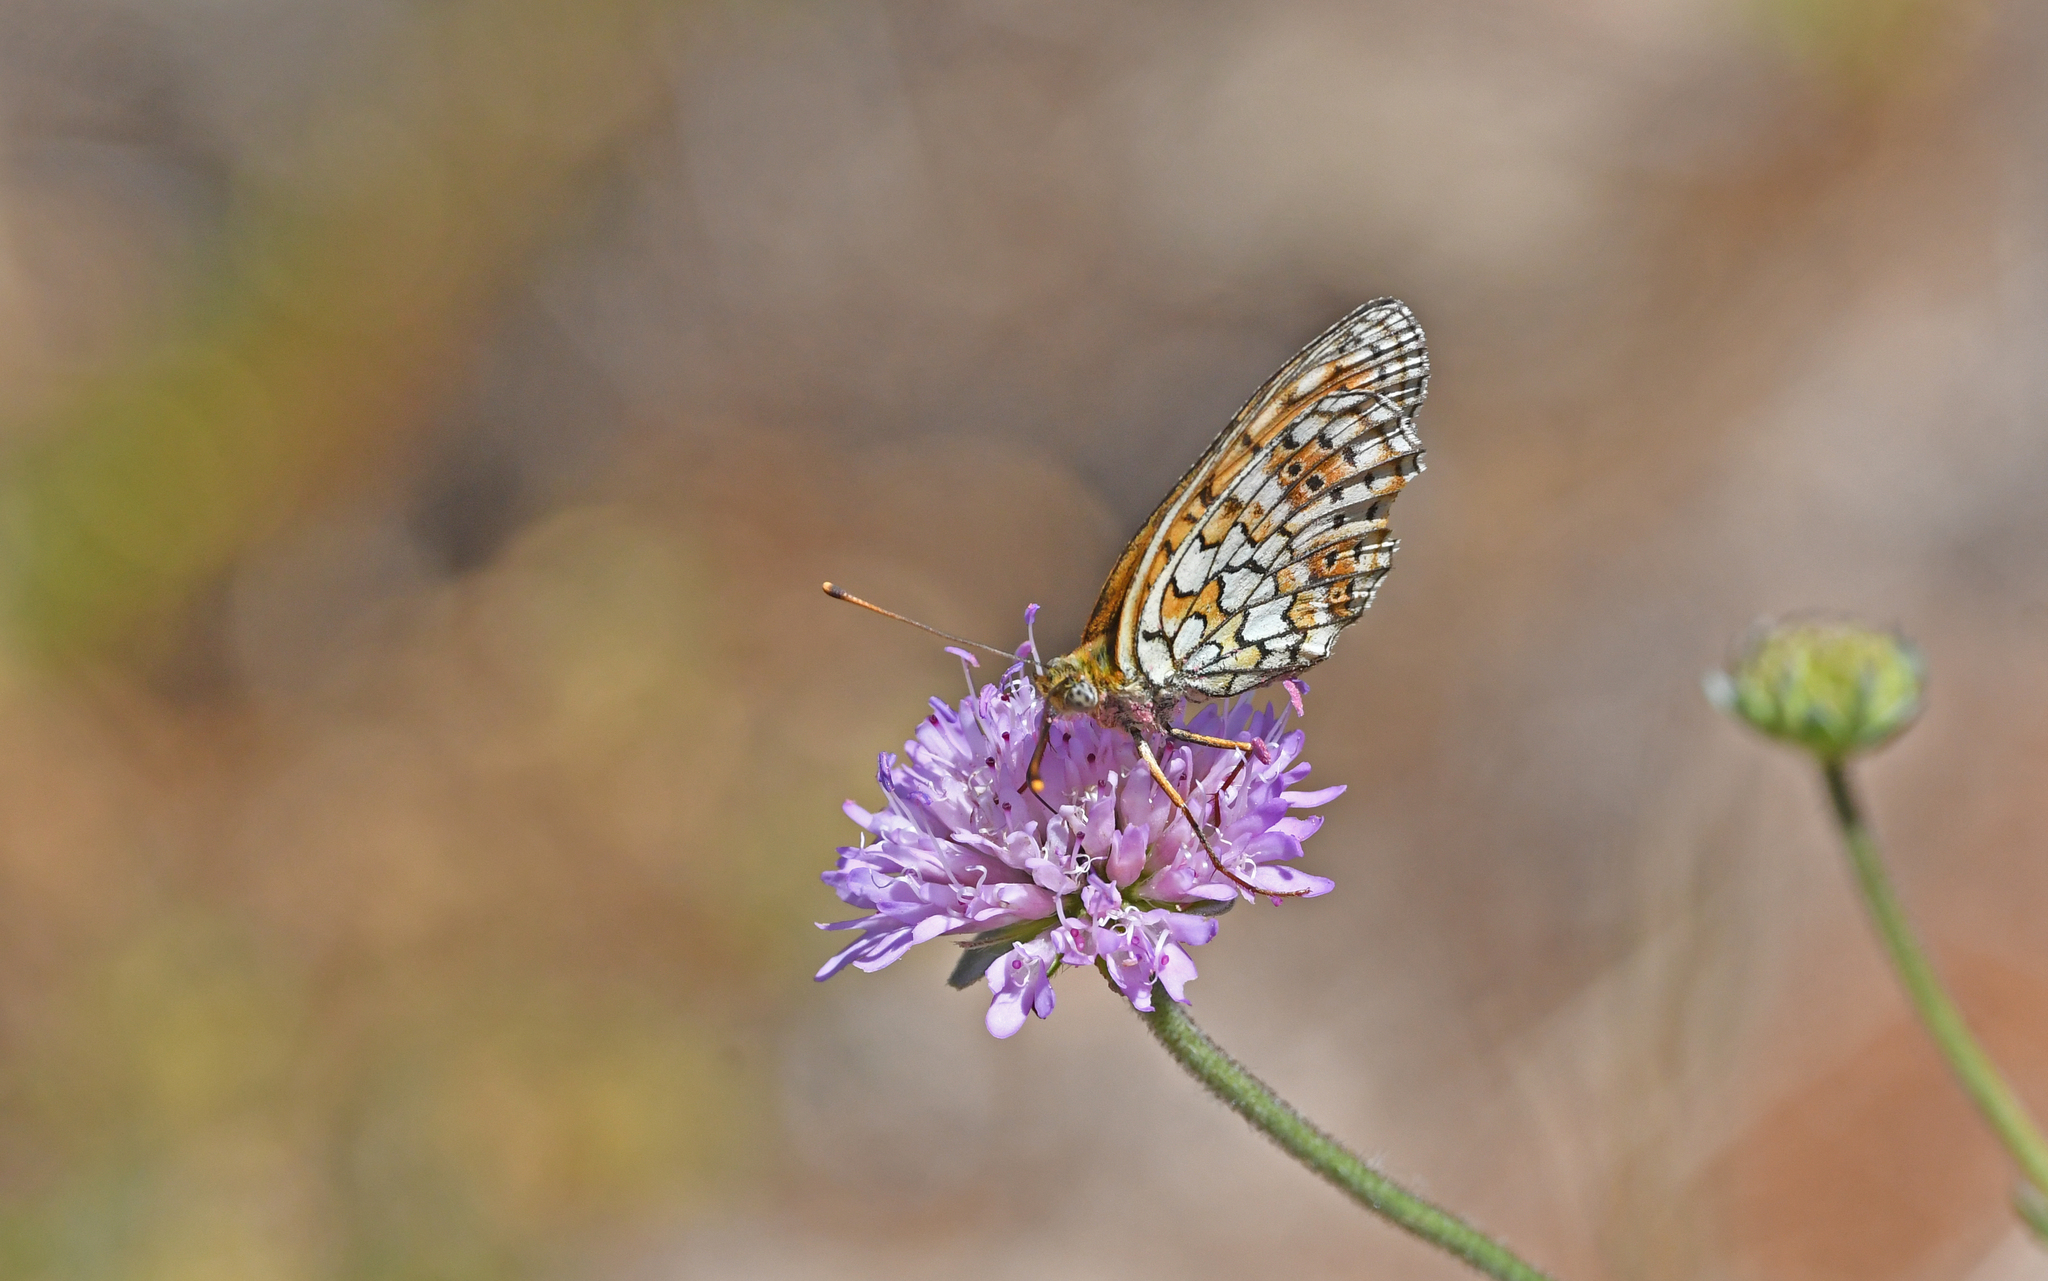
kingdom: Animalia
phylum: Arthropoda
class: Insecta
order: Lepidoptera
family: Nymphalidae
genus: Brenthis
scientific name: Brenthis hecate
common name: Twin-spot fritillary
